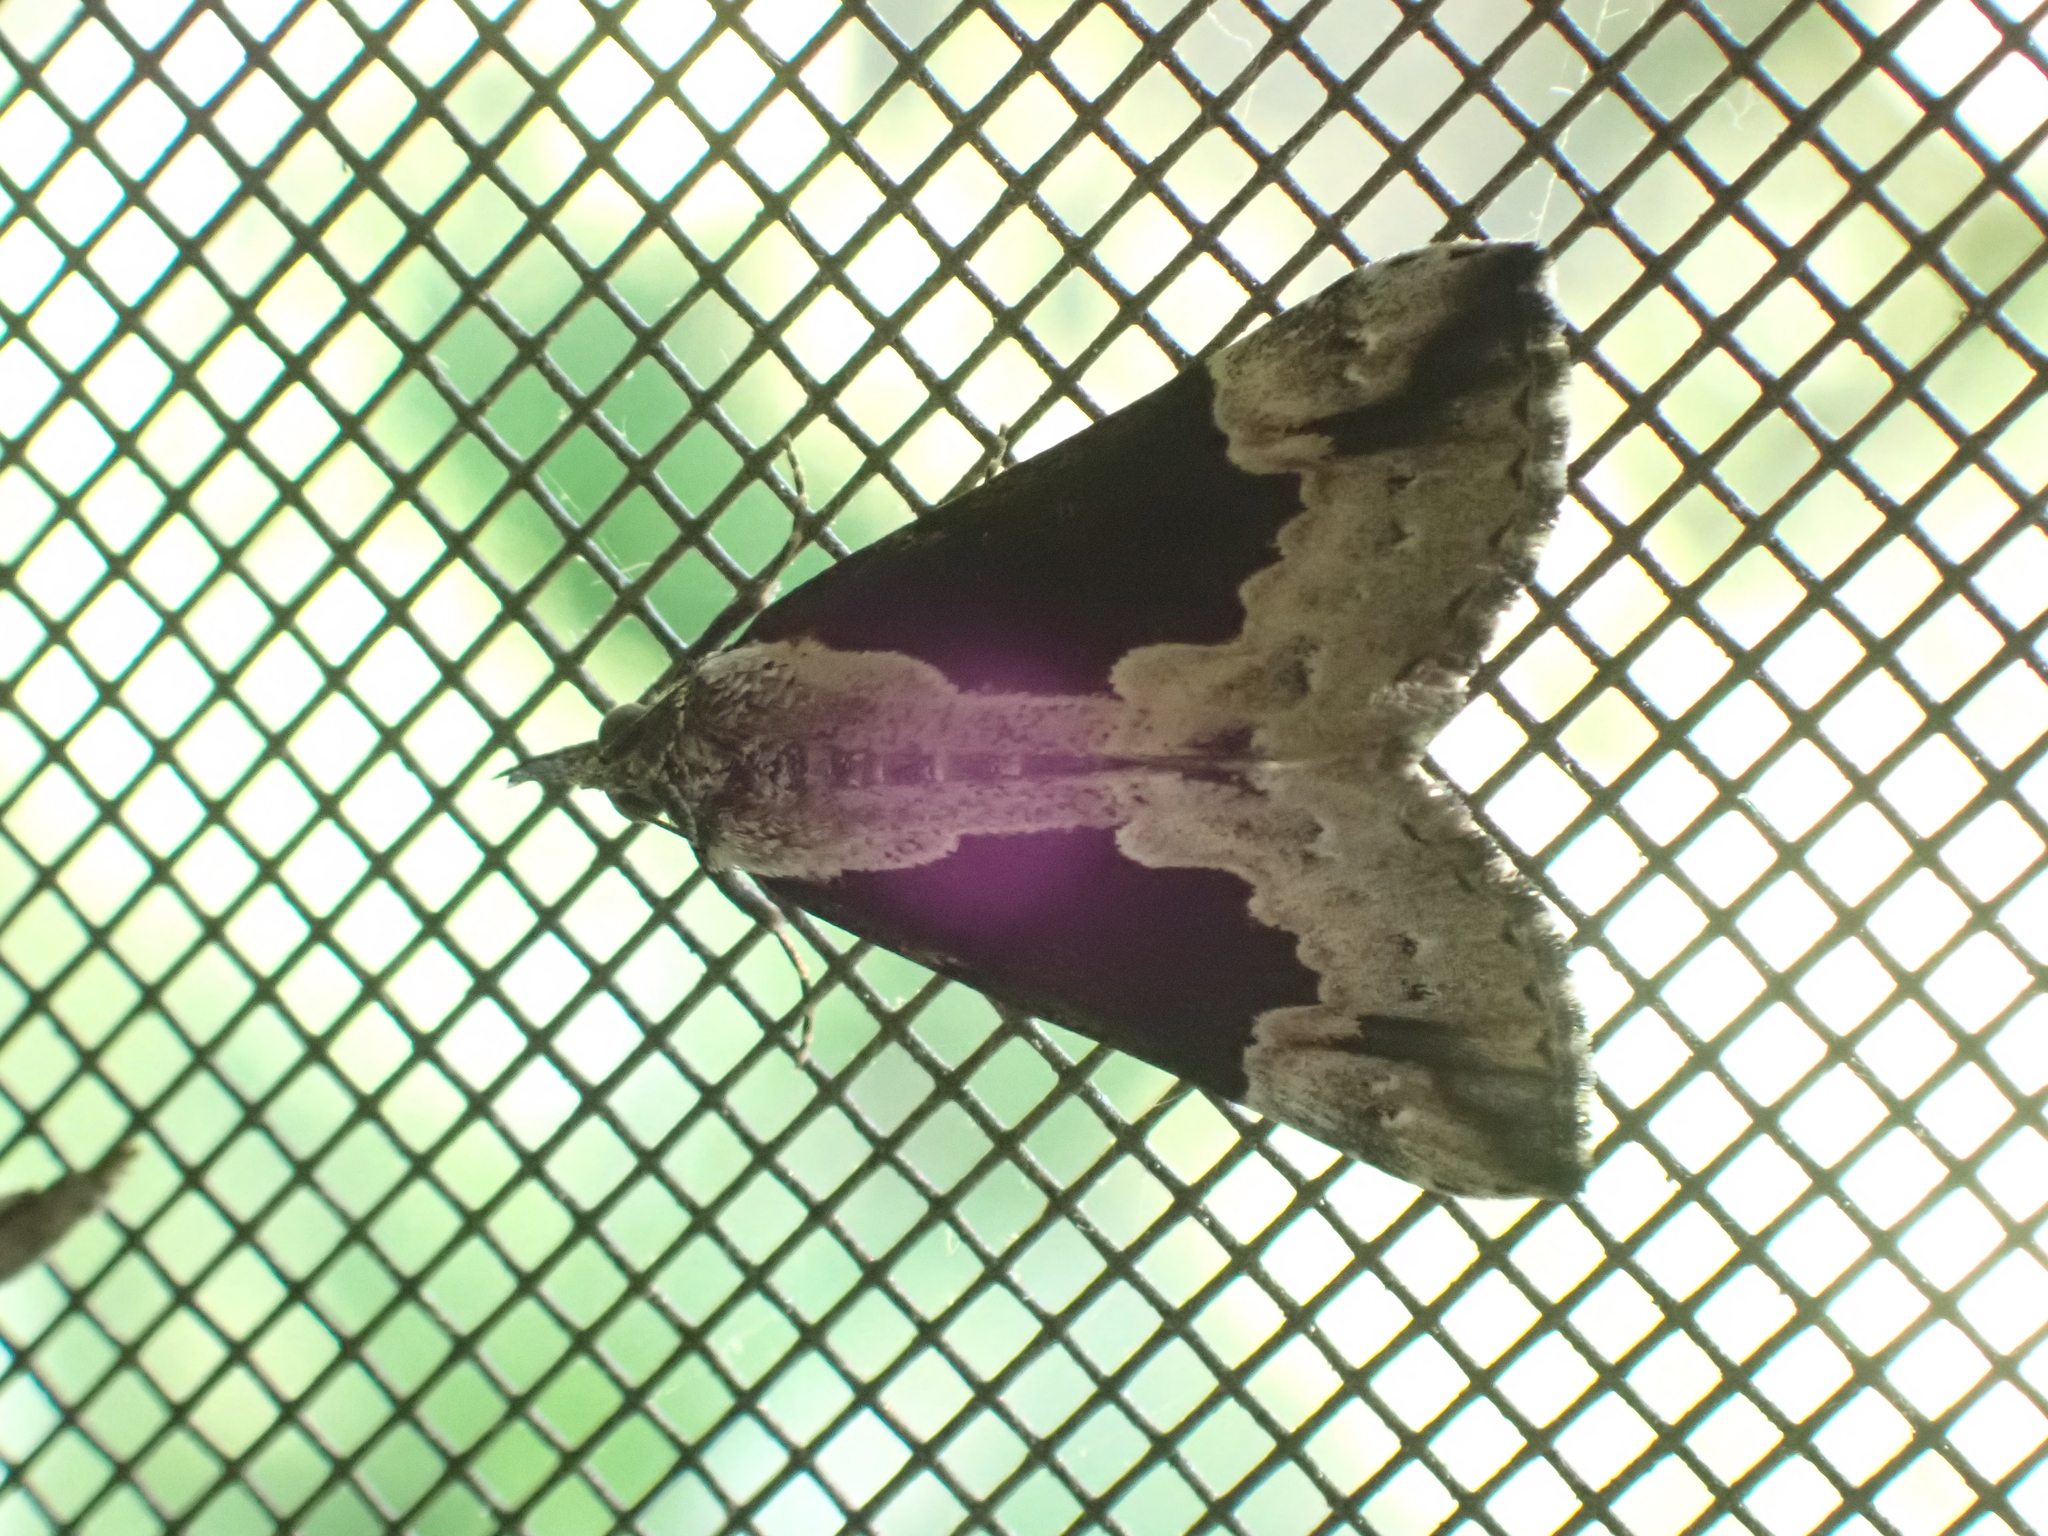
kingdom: Animalia
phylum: Arthropoda
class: Insecta
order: Lepidoptera
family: Erebidae
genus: Hypena
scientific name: Hypena baltimoralis
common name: Baltimore snout
